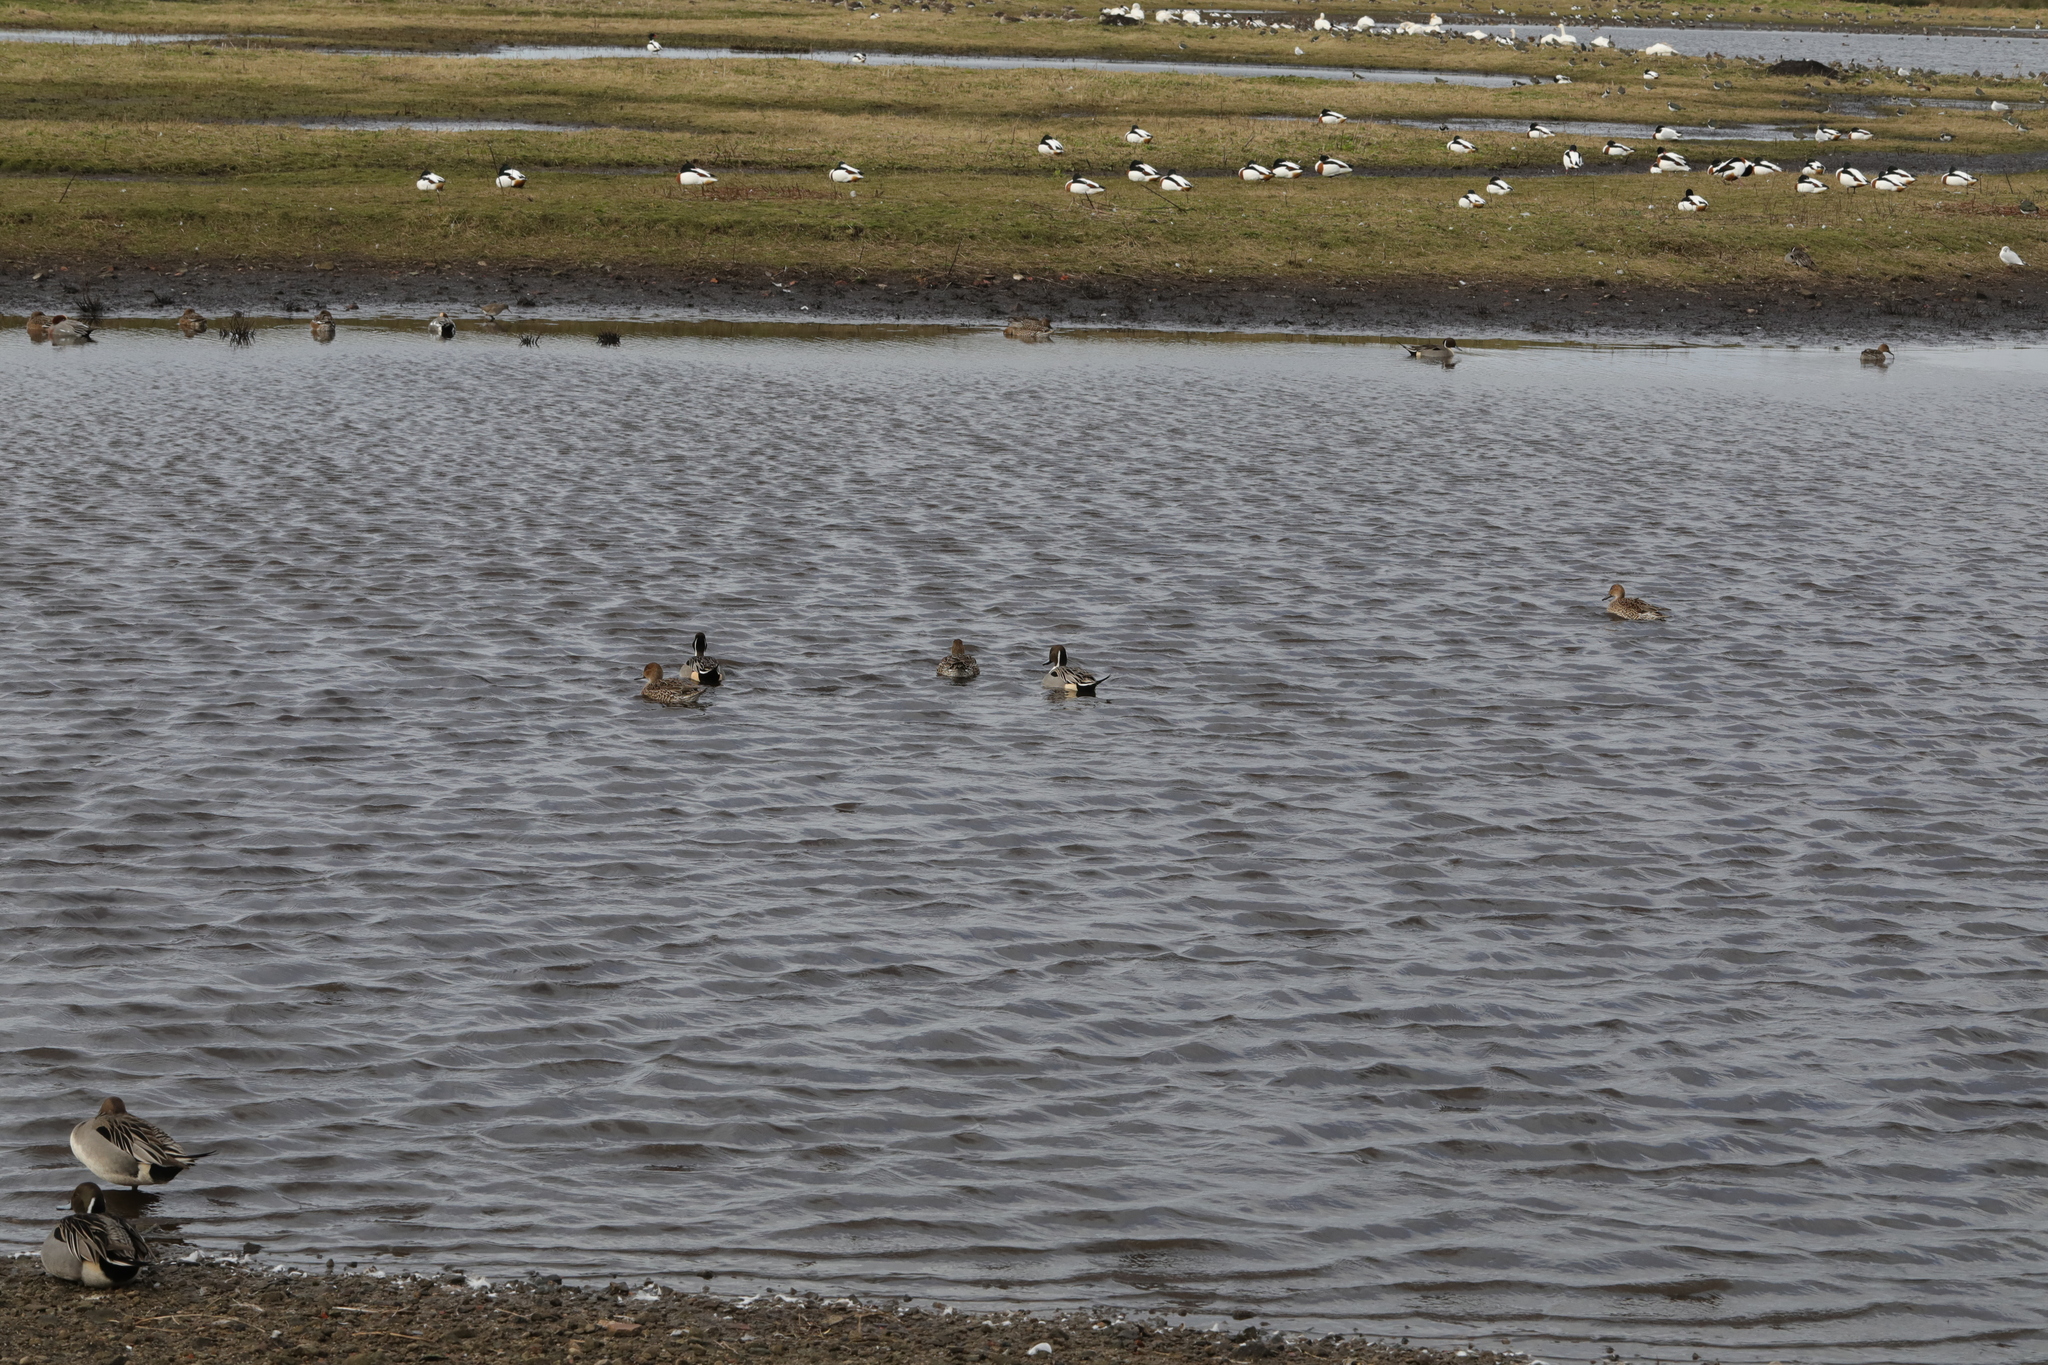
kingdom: Animalia
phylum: Chordata
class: Aves
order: Anseriformes
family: Anatidae
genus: Anas
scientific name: Anas acuta
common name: Northern pintail
